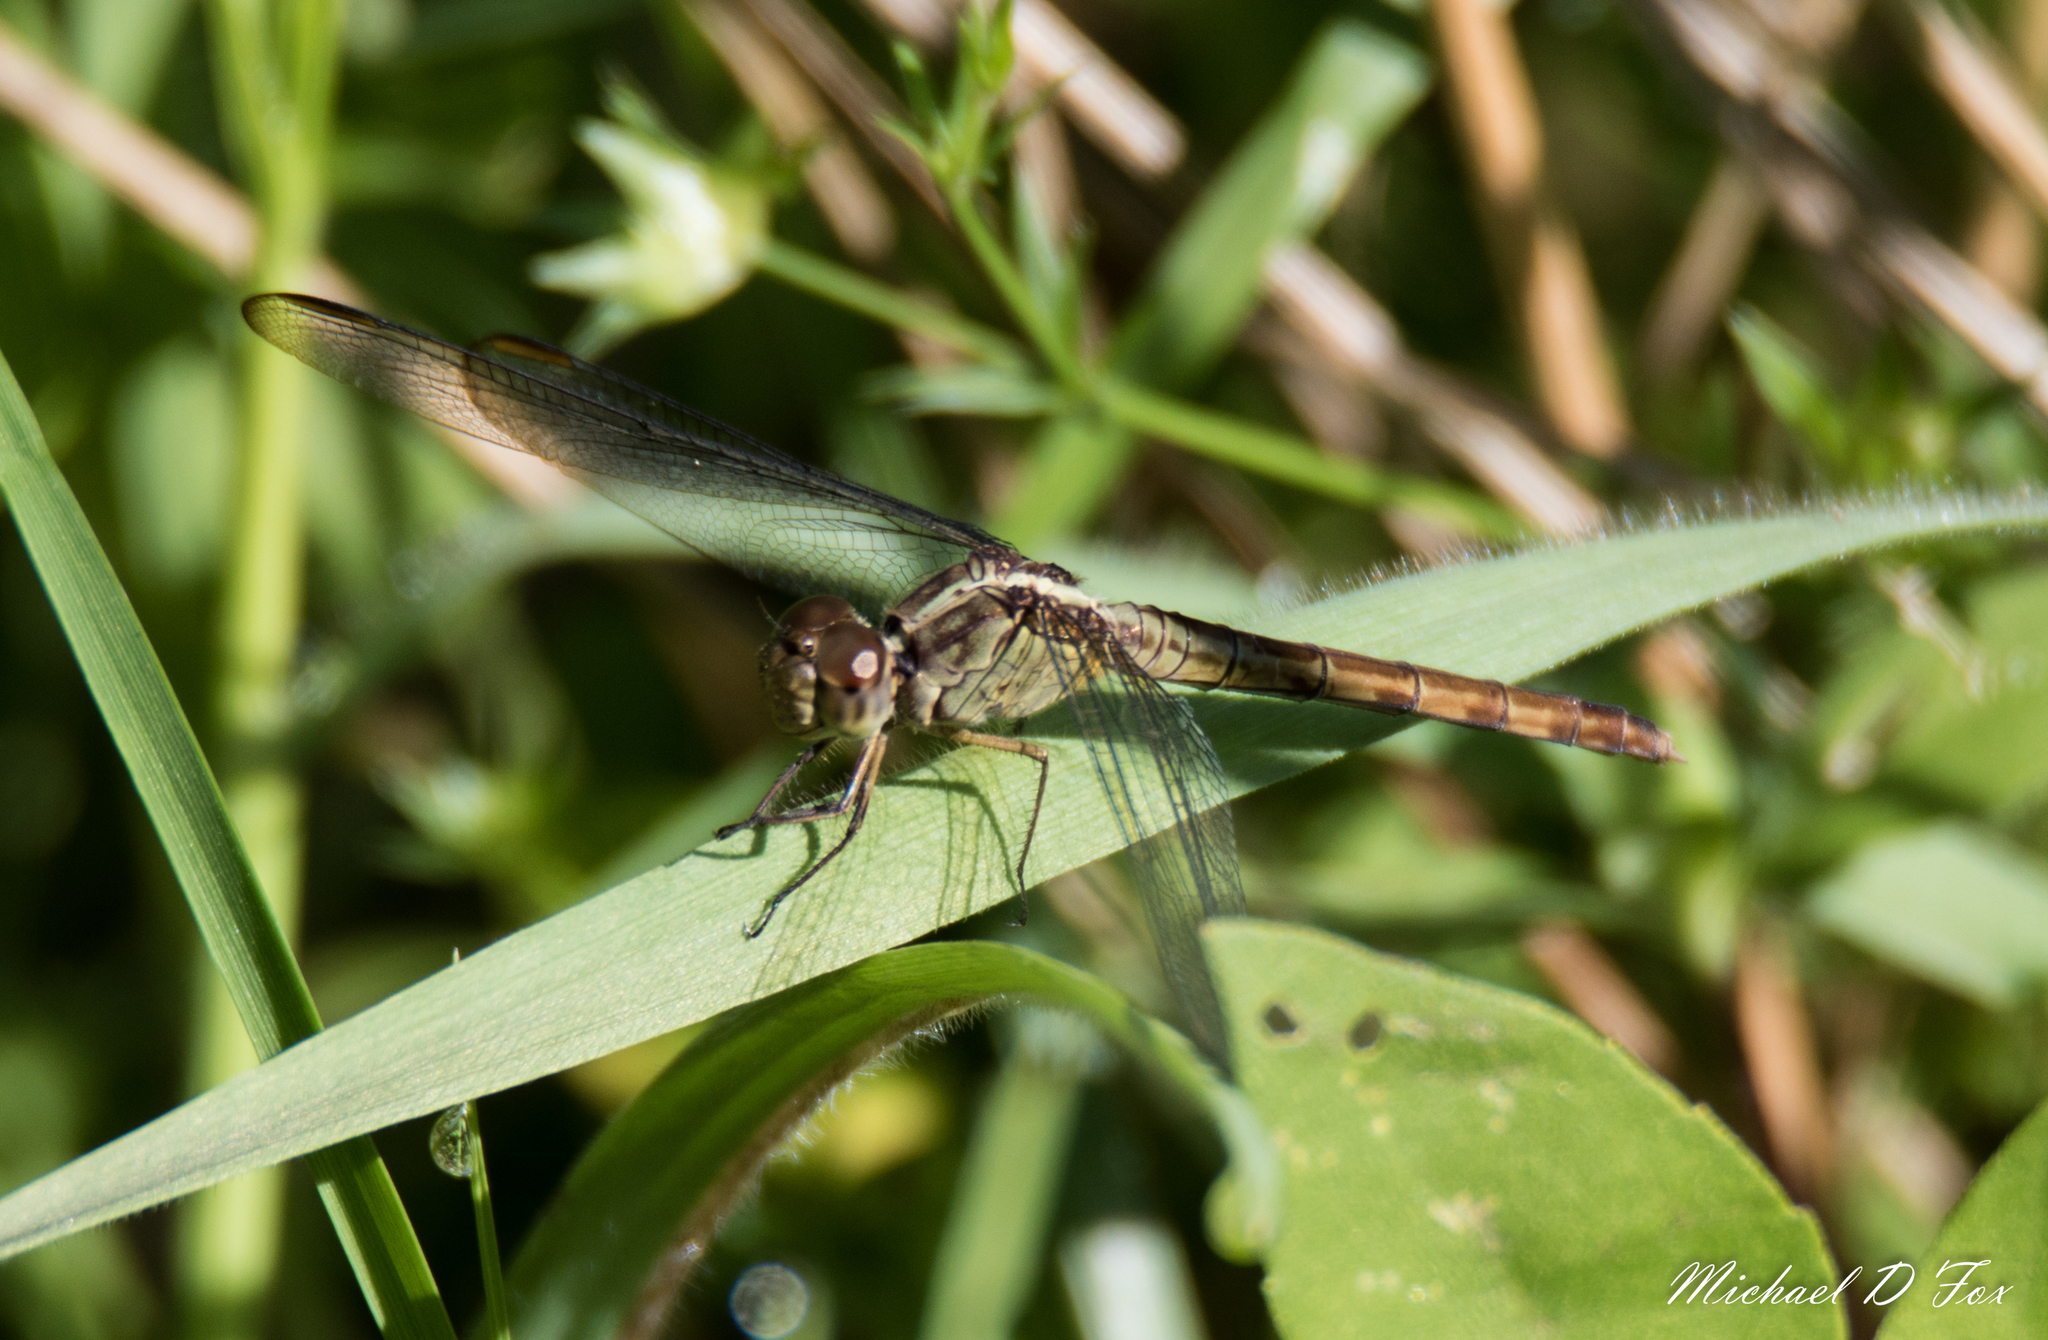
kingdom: Animalia
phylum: Arthropoda
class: Insecta
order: Odonata
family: Libellulidae
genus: Erythrodiplax
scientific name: Erythrodiplax umbrata
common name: Band-winged dragonlet
